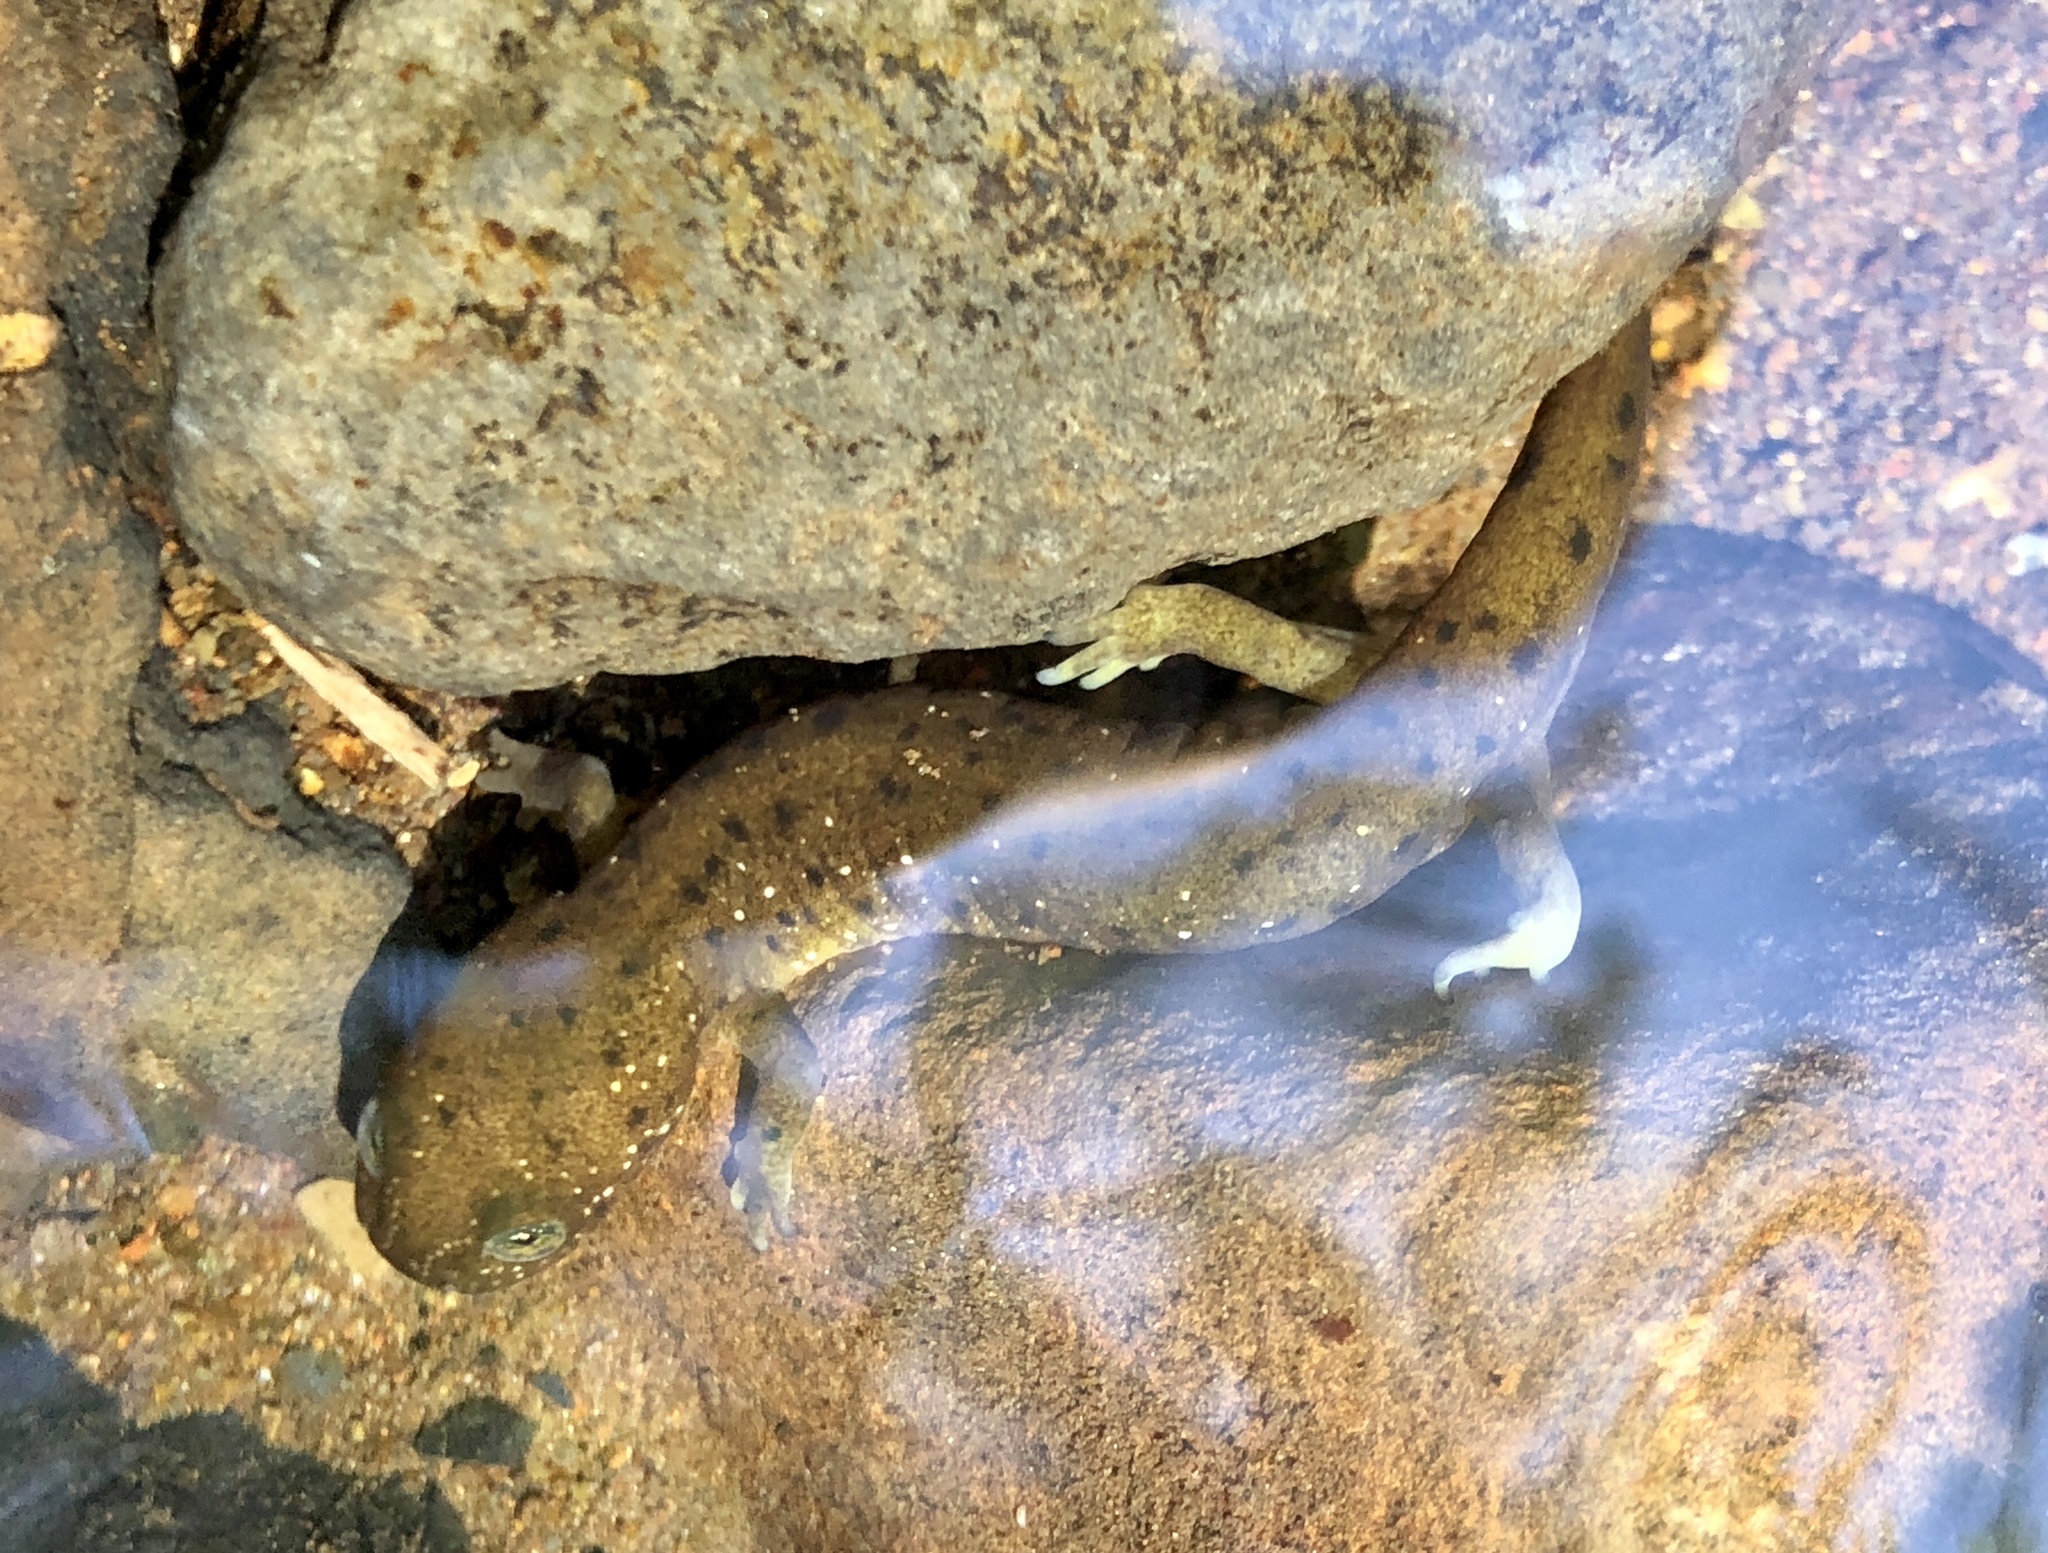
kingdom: Animalia
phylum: Chordata
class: Amphibia
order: Caudata
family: Rhyacotritonidae
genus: Rhyacotriton
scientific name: Rhyacotriton cascadae
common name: Cascade torrent salamander
